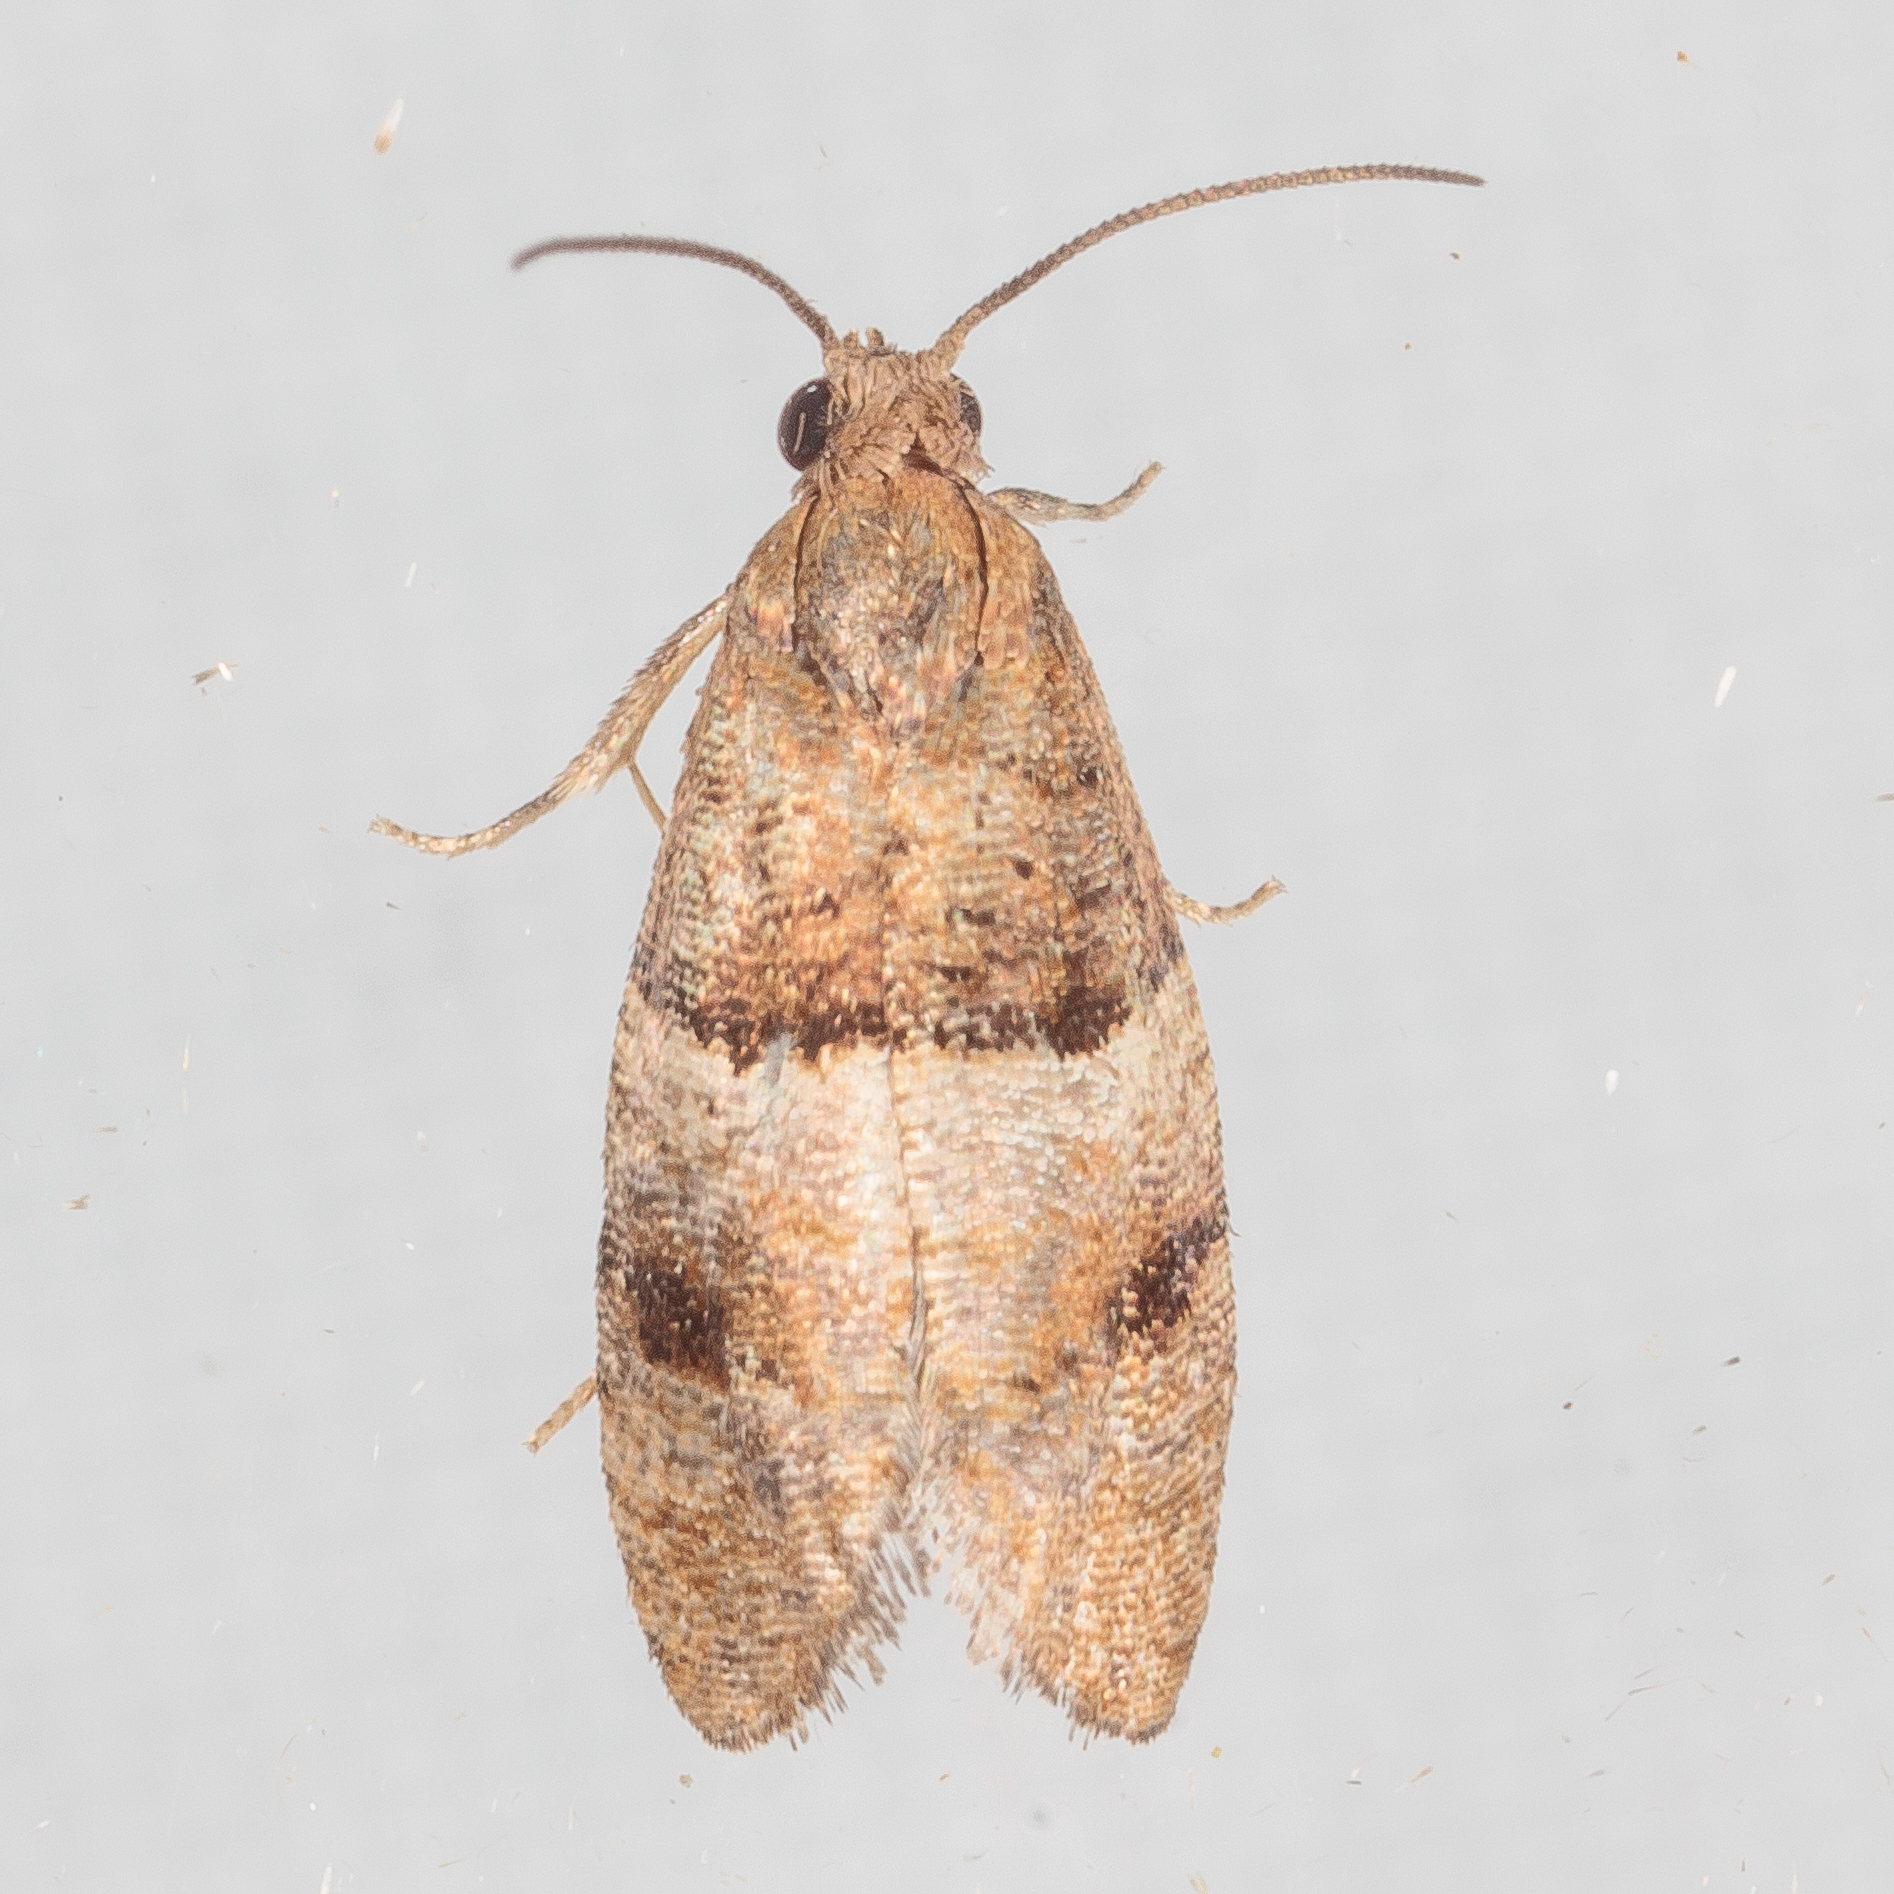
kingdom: Animalia
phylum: Arthropoda
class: Insecta
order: Lepidoptera
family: Tortricidae
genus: Larisa
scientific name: Larisa subsolana
